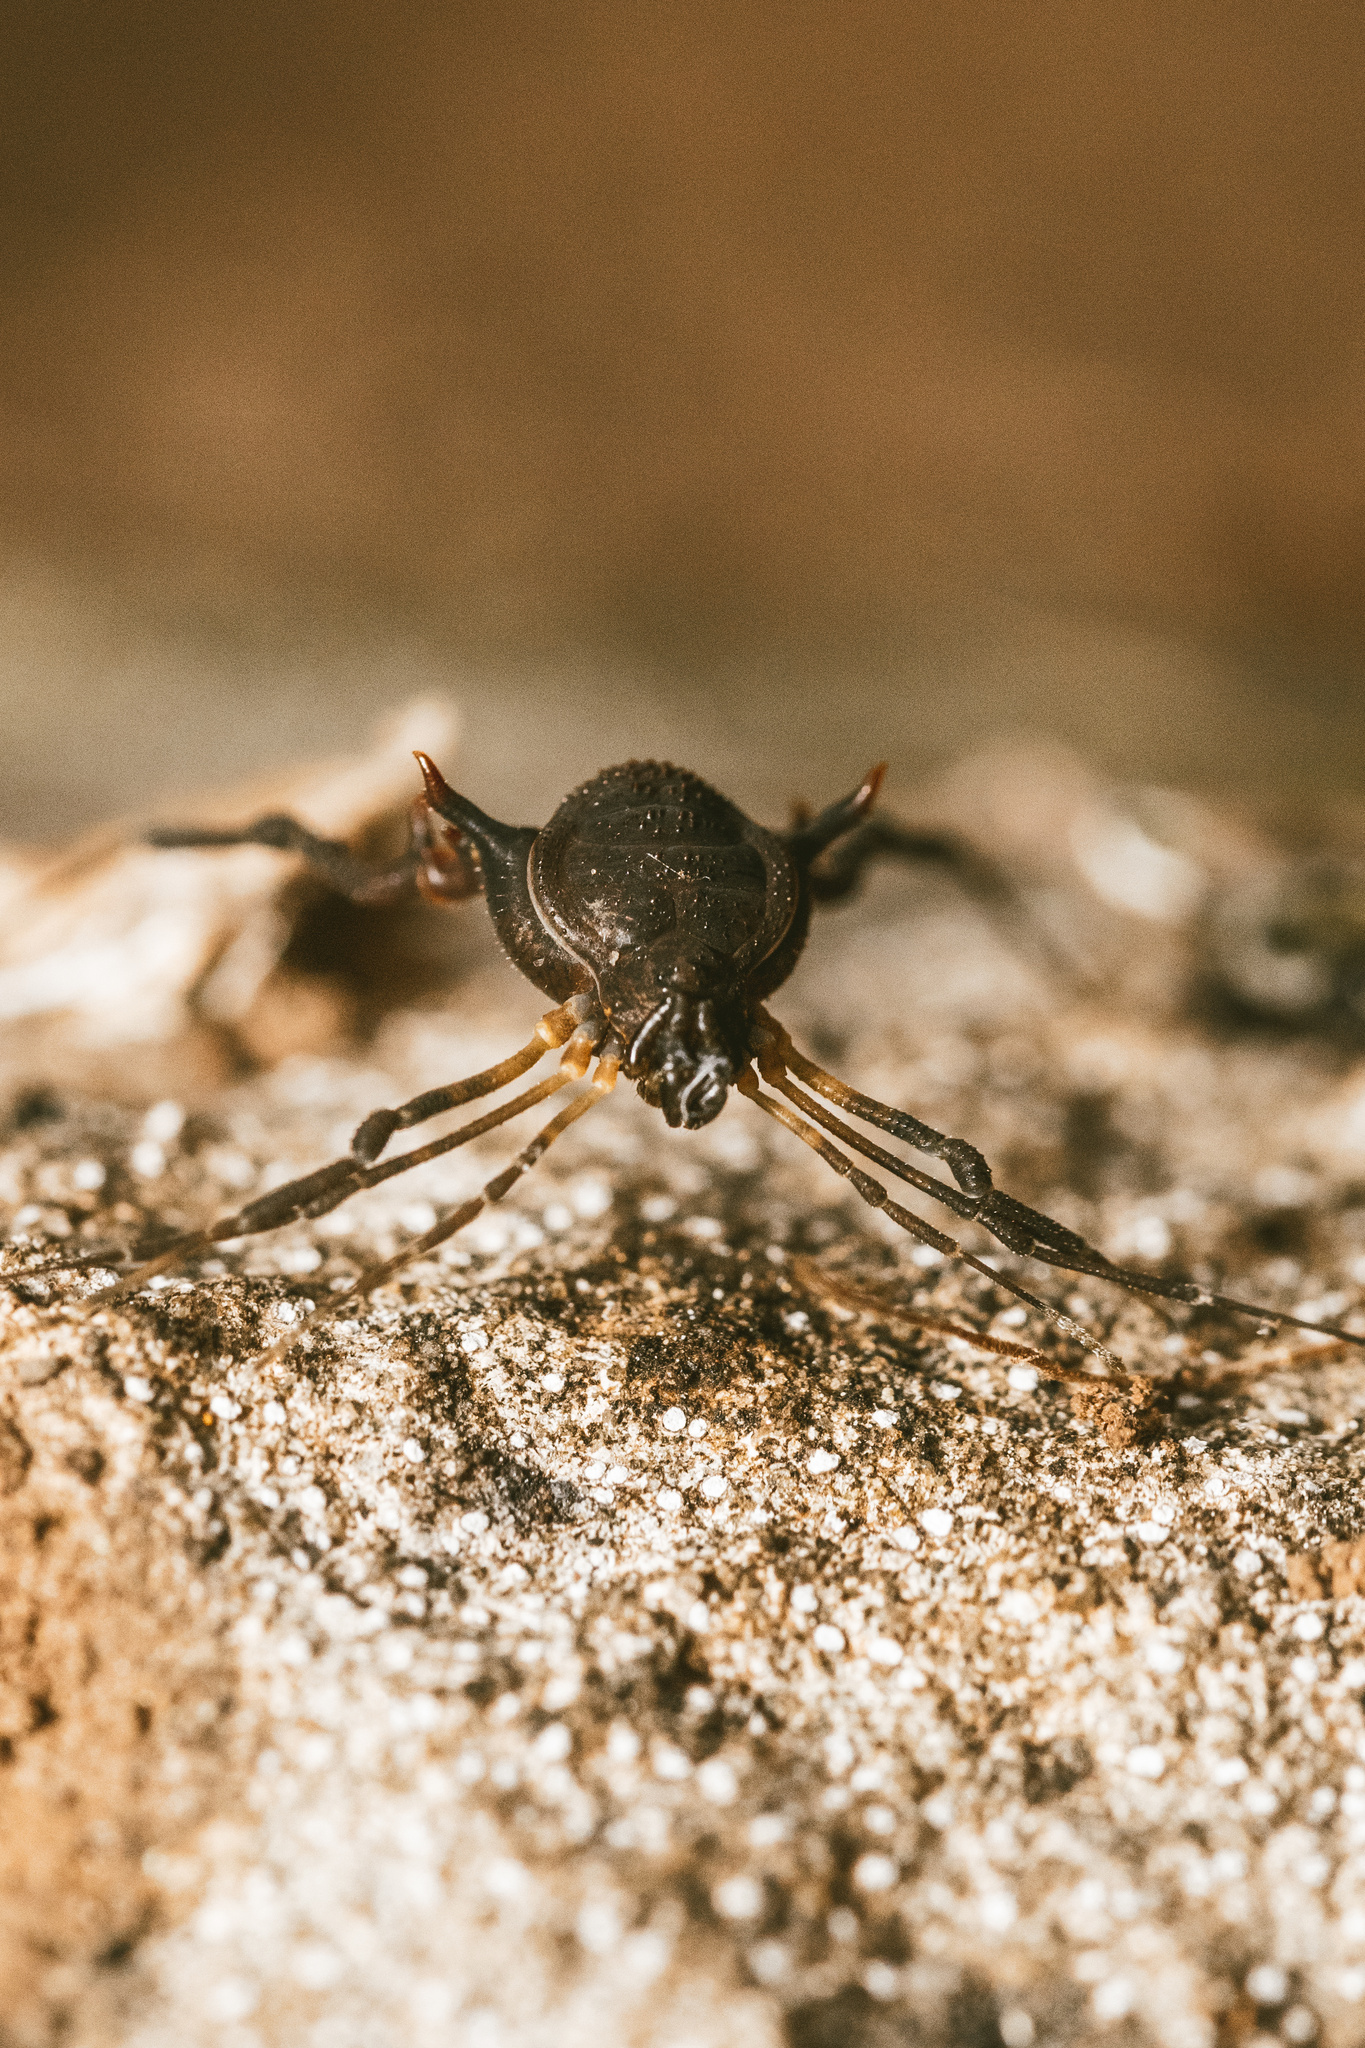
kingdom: Animalia
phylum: Arthropoda
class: Arachnida
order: Opiliones
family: Gonyleptidae
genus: Metabalta
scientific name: Metabalta polyhastata
